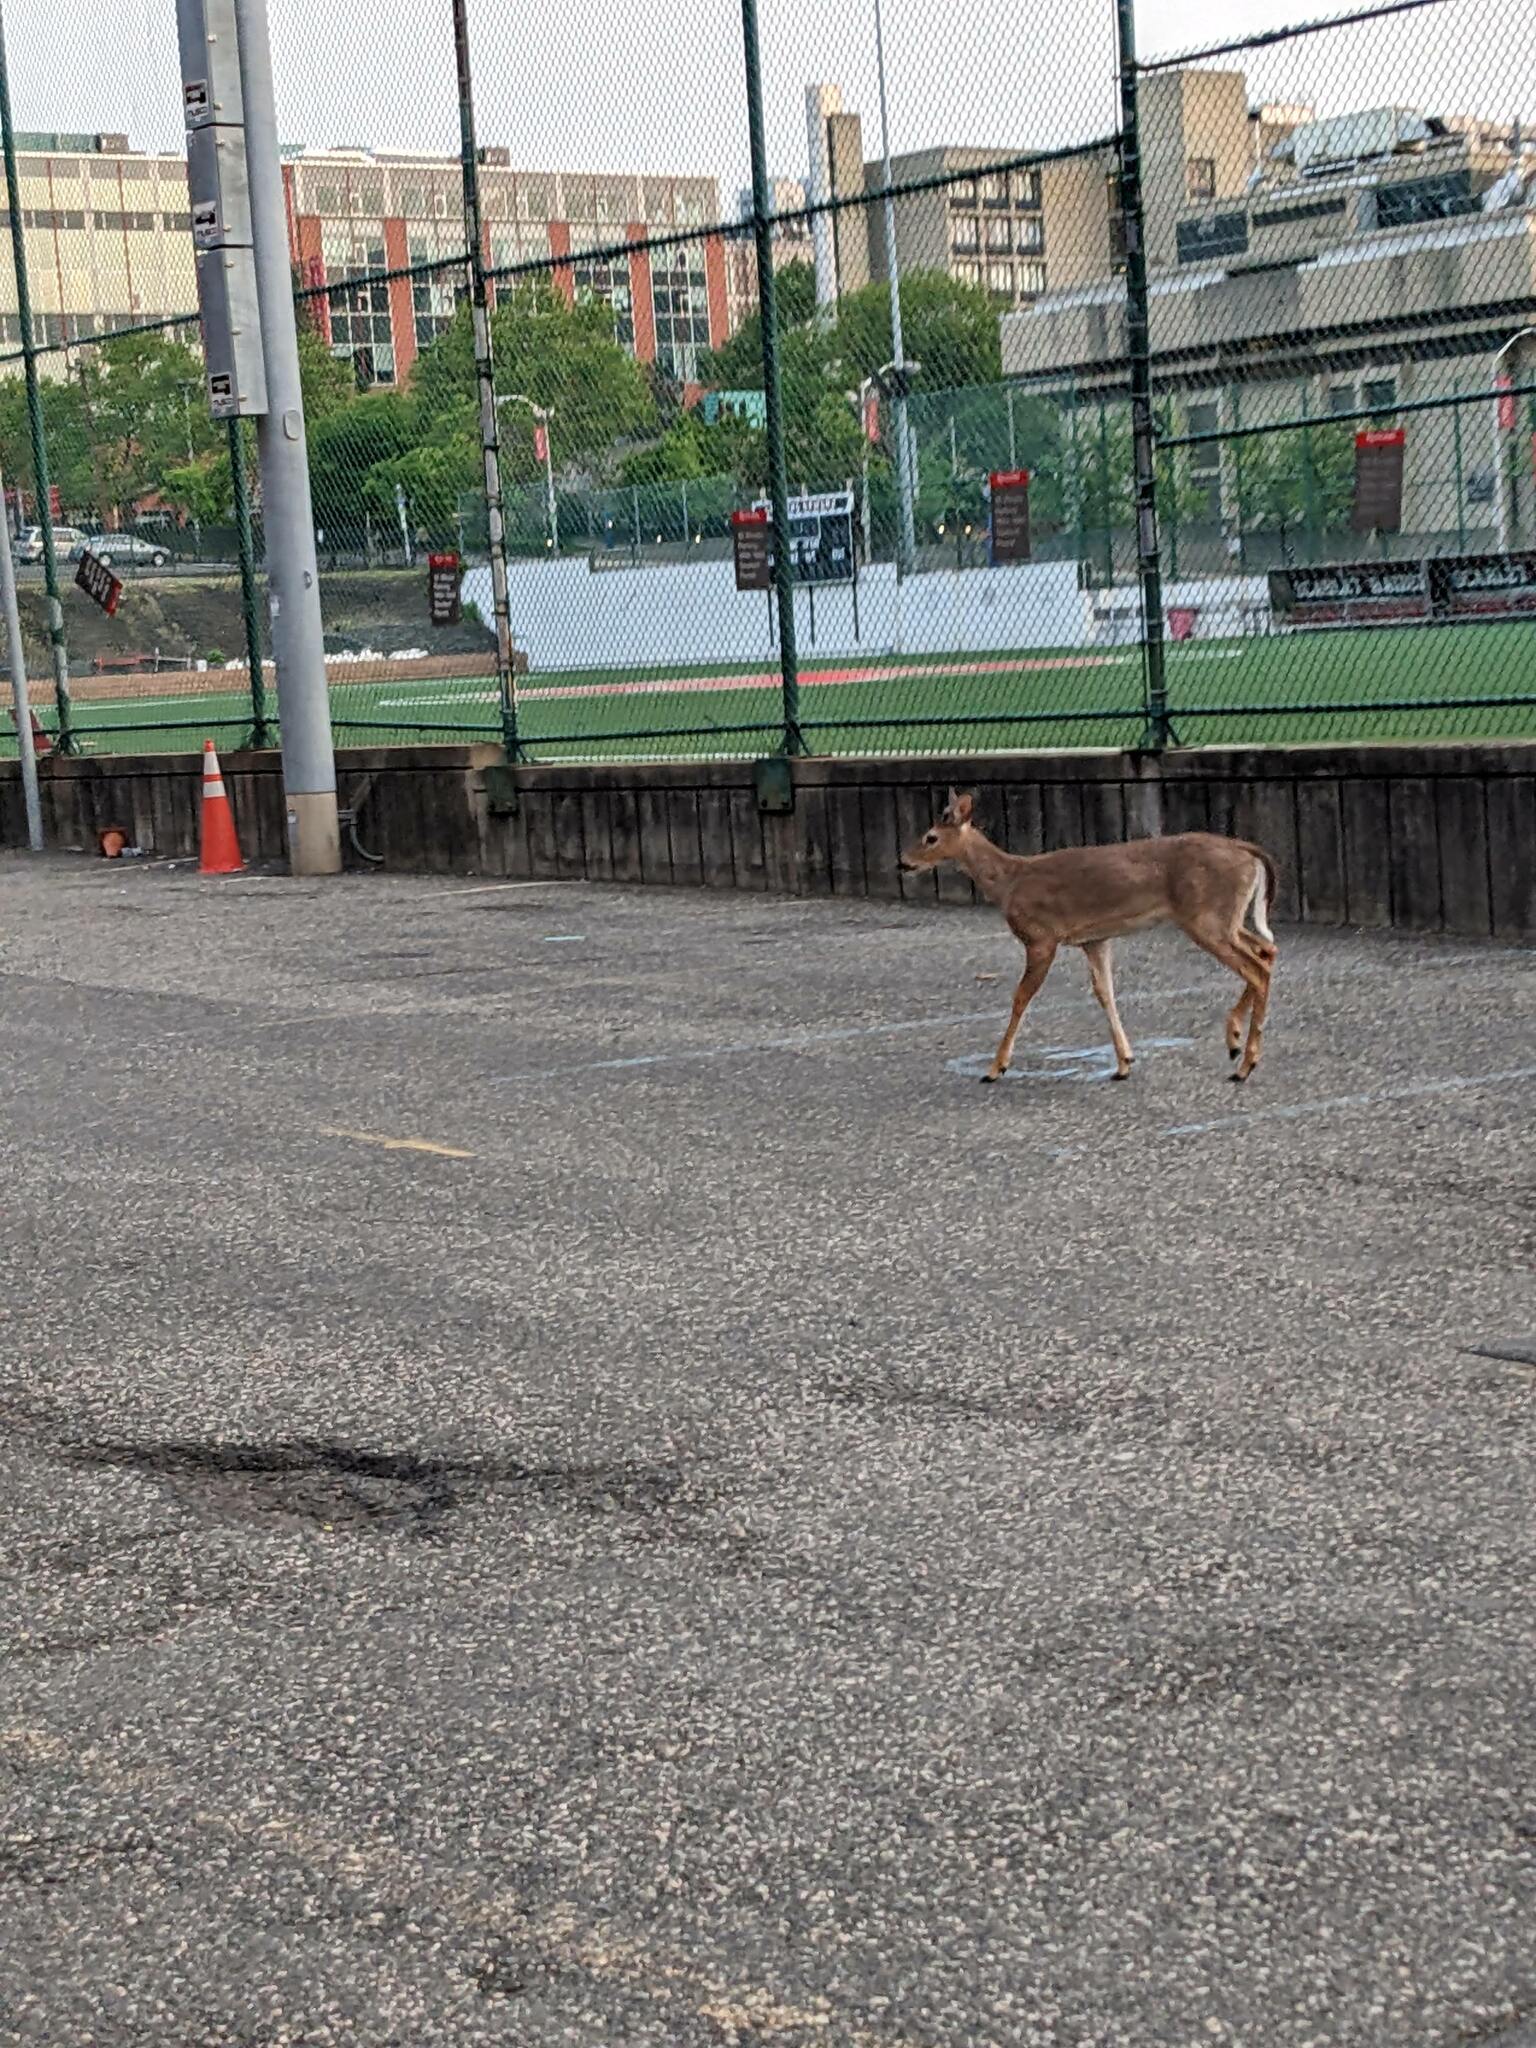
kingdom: Animalia
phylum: Chordata
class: Mammalia
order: Artiodactyla
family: Cervidae
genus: Odocoileus
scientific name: Odocoileus virginianus
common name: White-tailed deer
